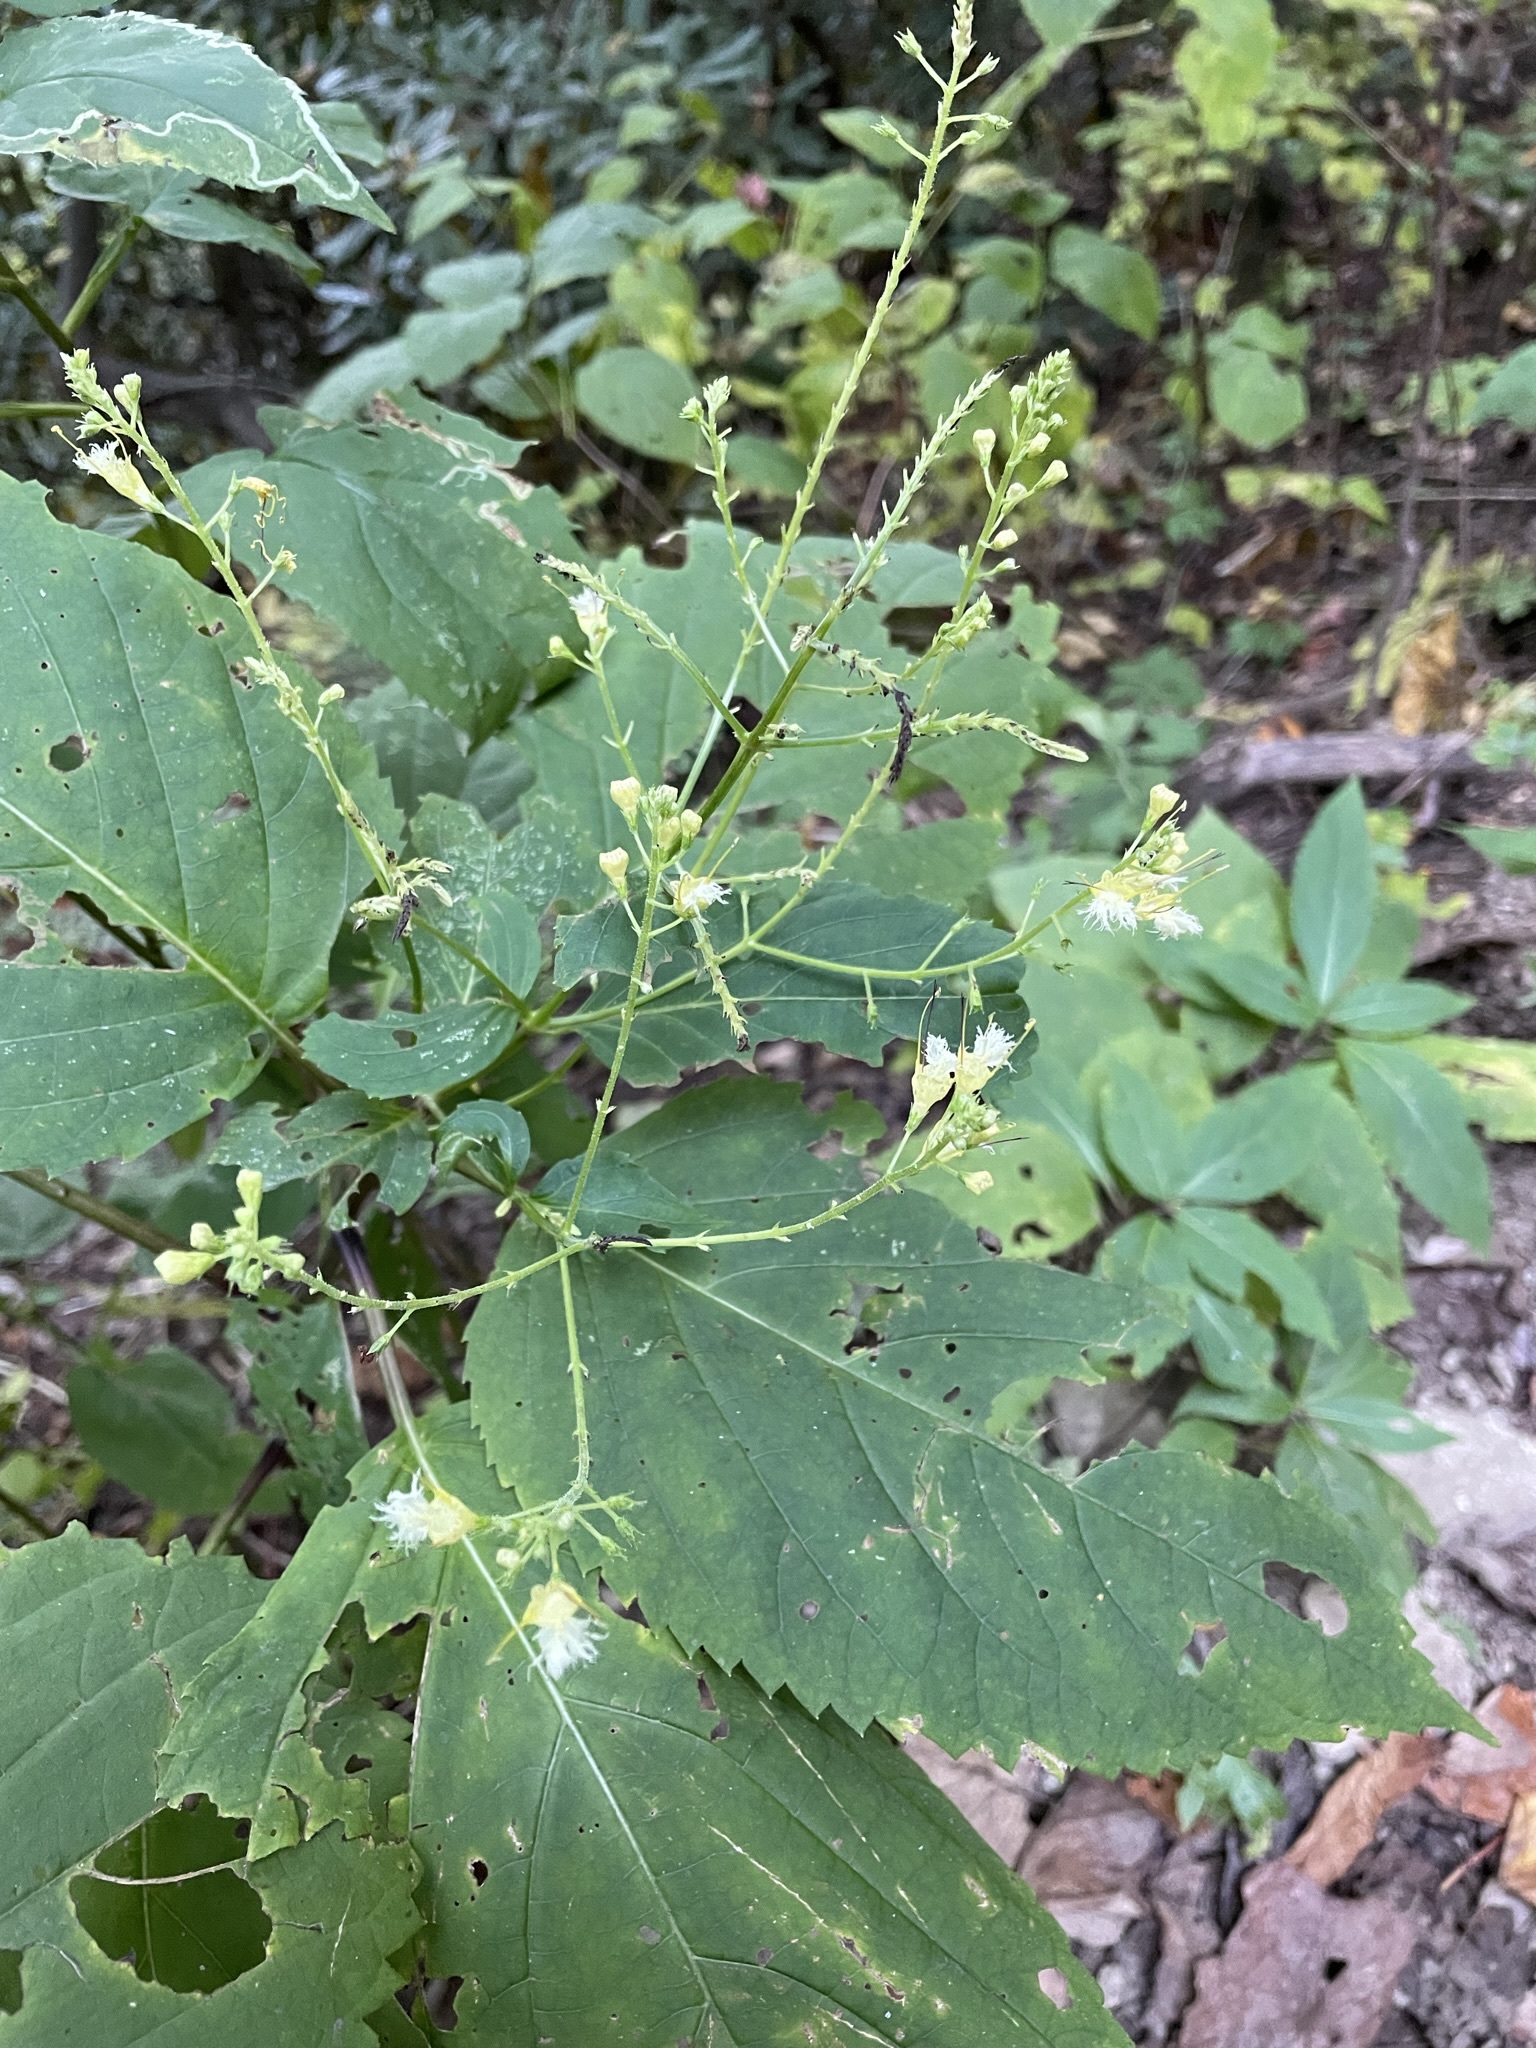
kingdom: Plantae
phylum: Tracheophyta
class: Magnoliopsida
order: Lamiales
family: Lamiaceae
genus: Collinsonia
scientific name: Collinsonia canadensis
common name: Northern horsebalm
